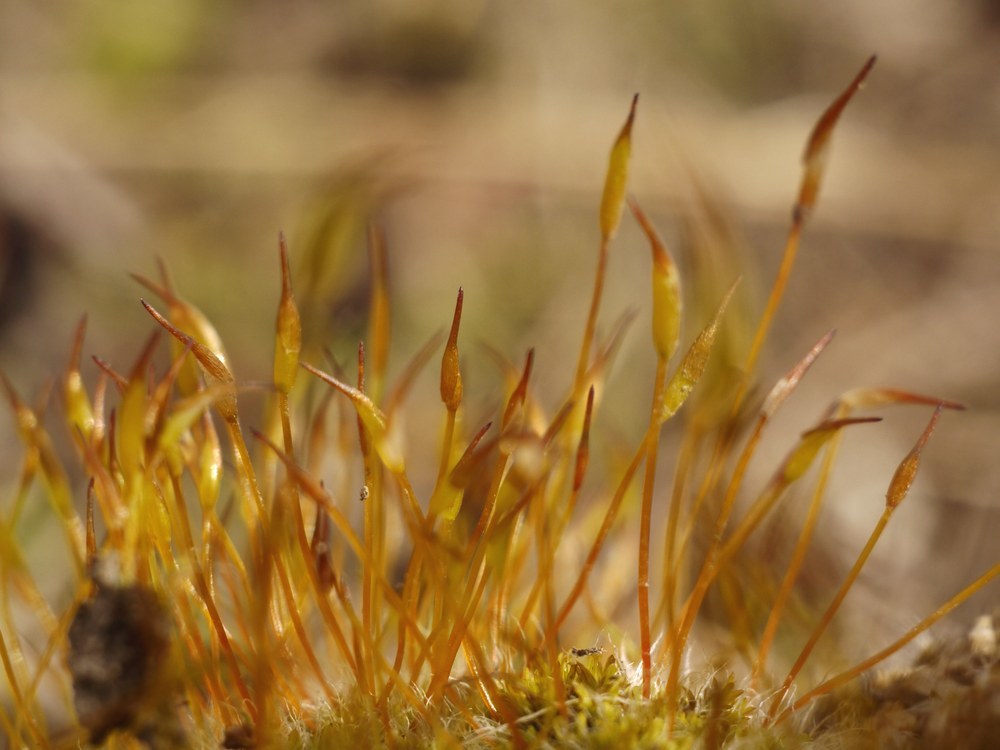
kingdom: Plantae
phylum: Bryophyta
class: Bryopsida
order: Pottiales
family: Pottiaceae
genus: Tortula
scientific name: Tortula muralis
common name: Wall screw-moss
